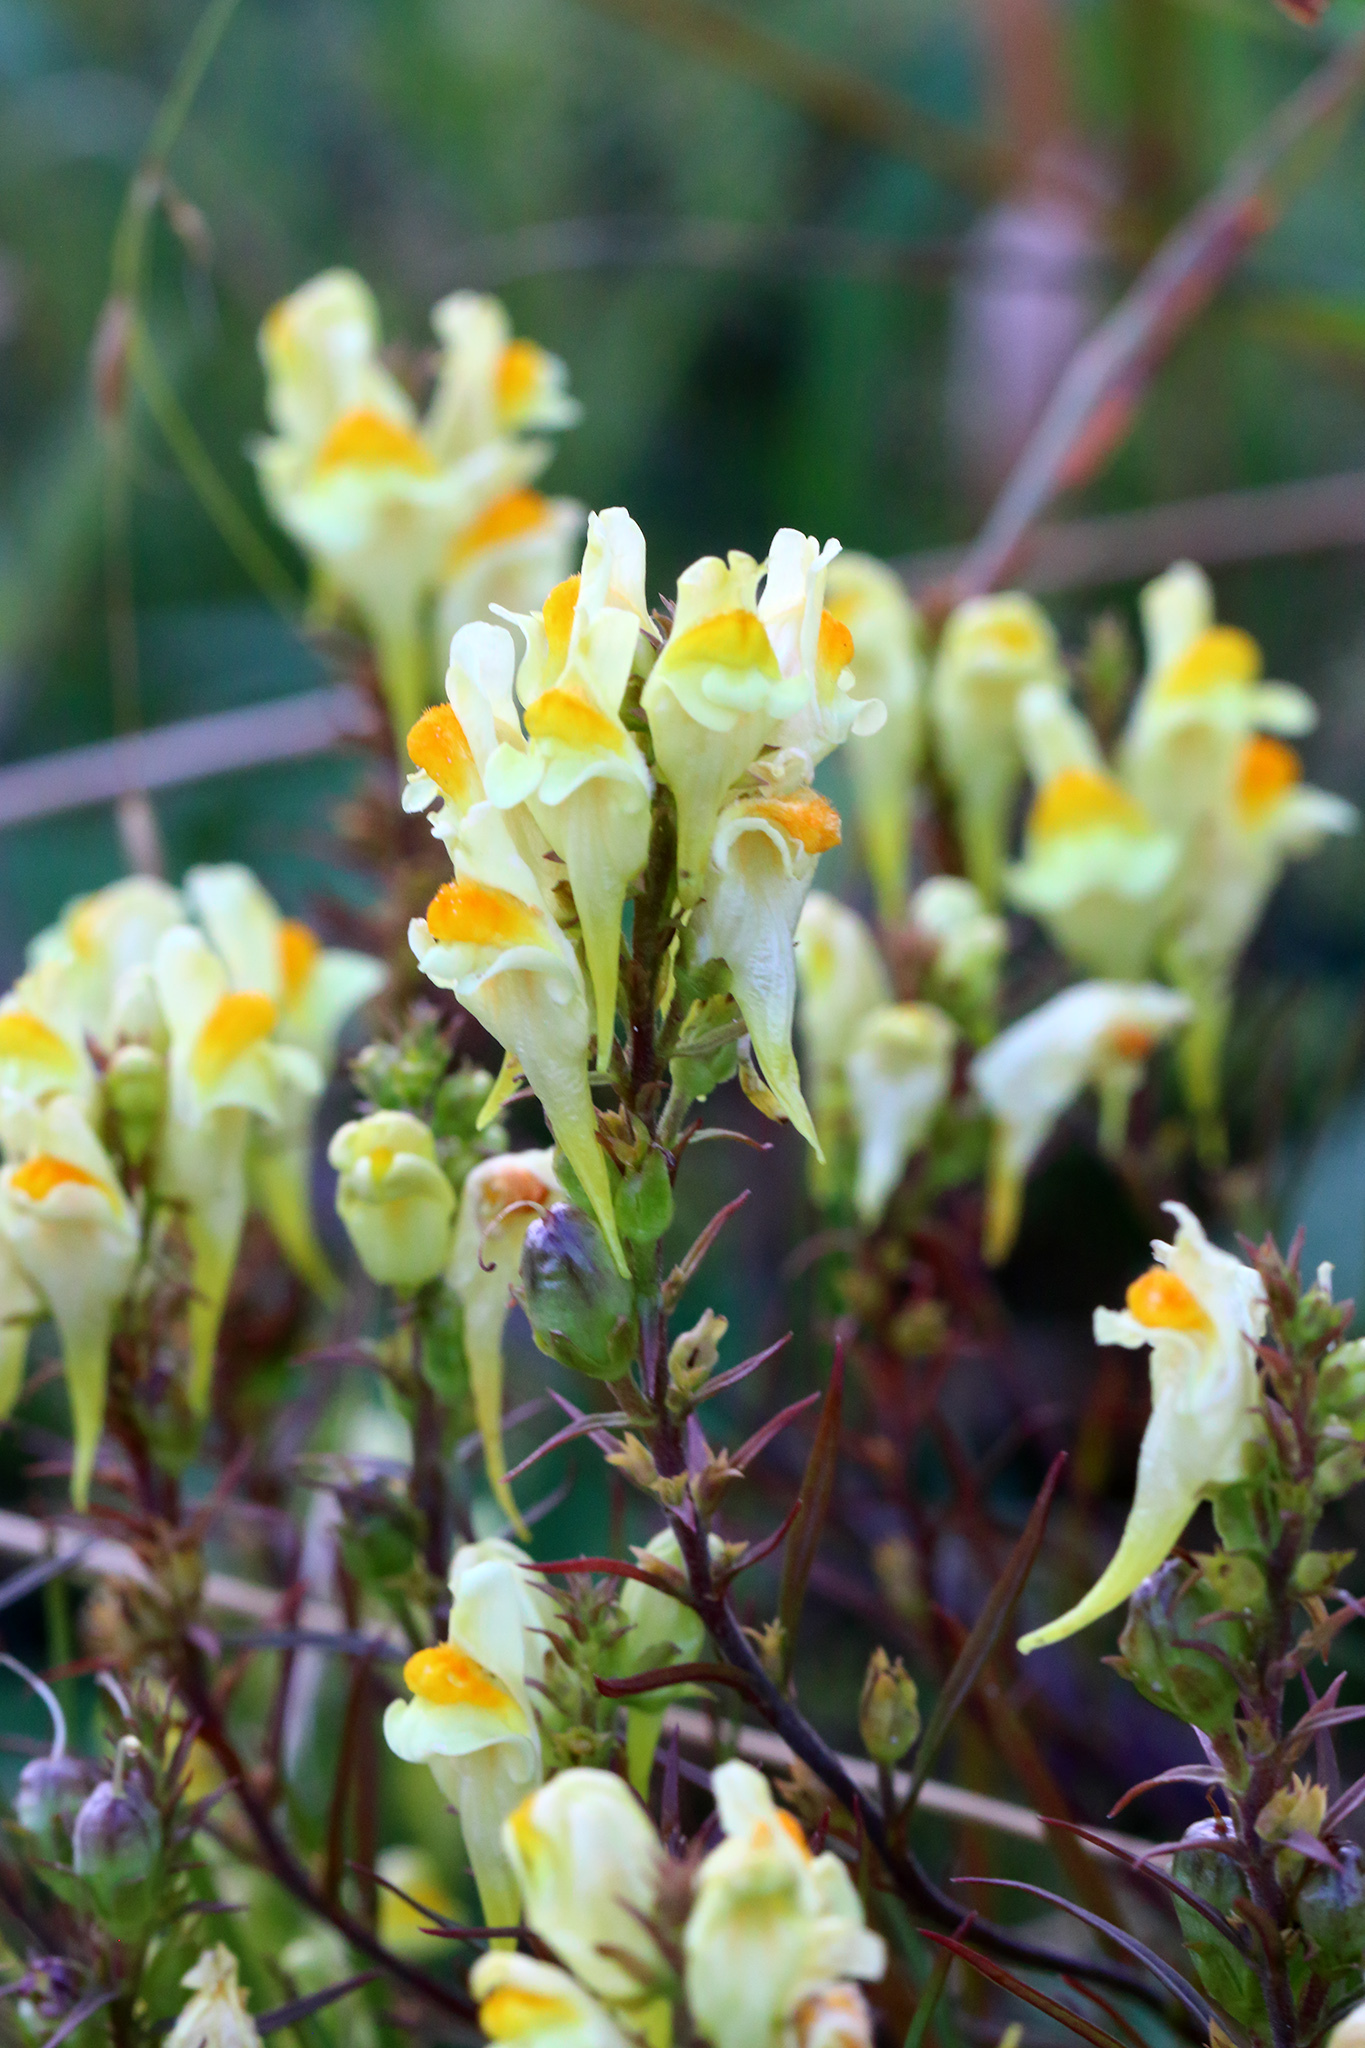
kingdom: Plantae
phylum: Tracheophyta
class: Magnoliopsida
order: Lamiales
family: Plantaginaceae
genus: Linaria
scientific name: Linaria vulgaris
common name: Butter and eggs
